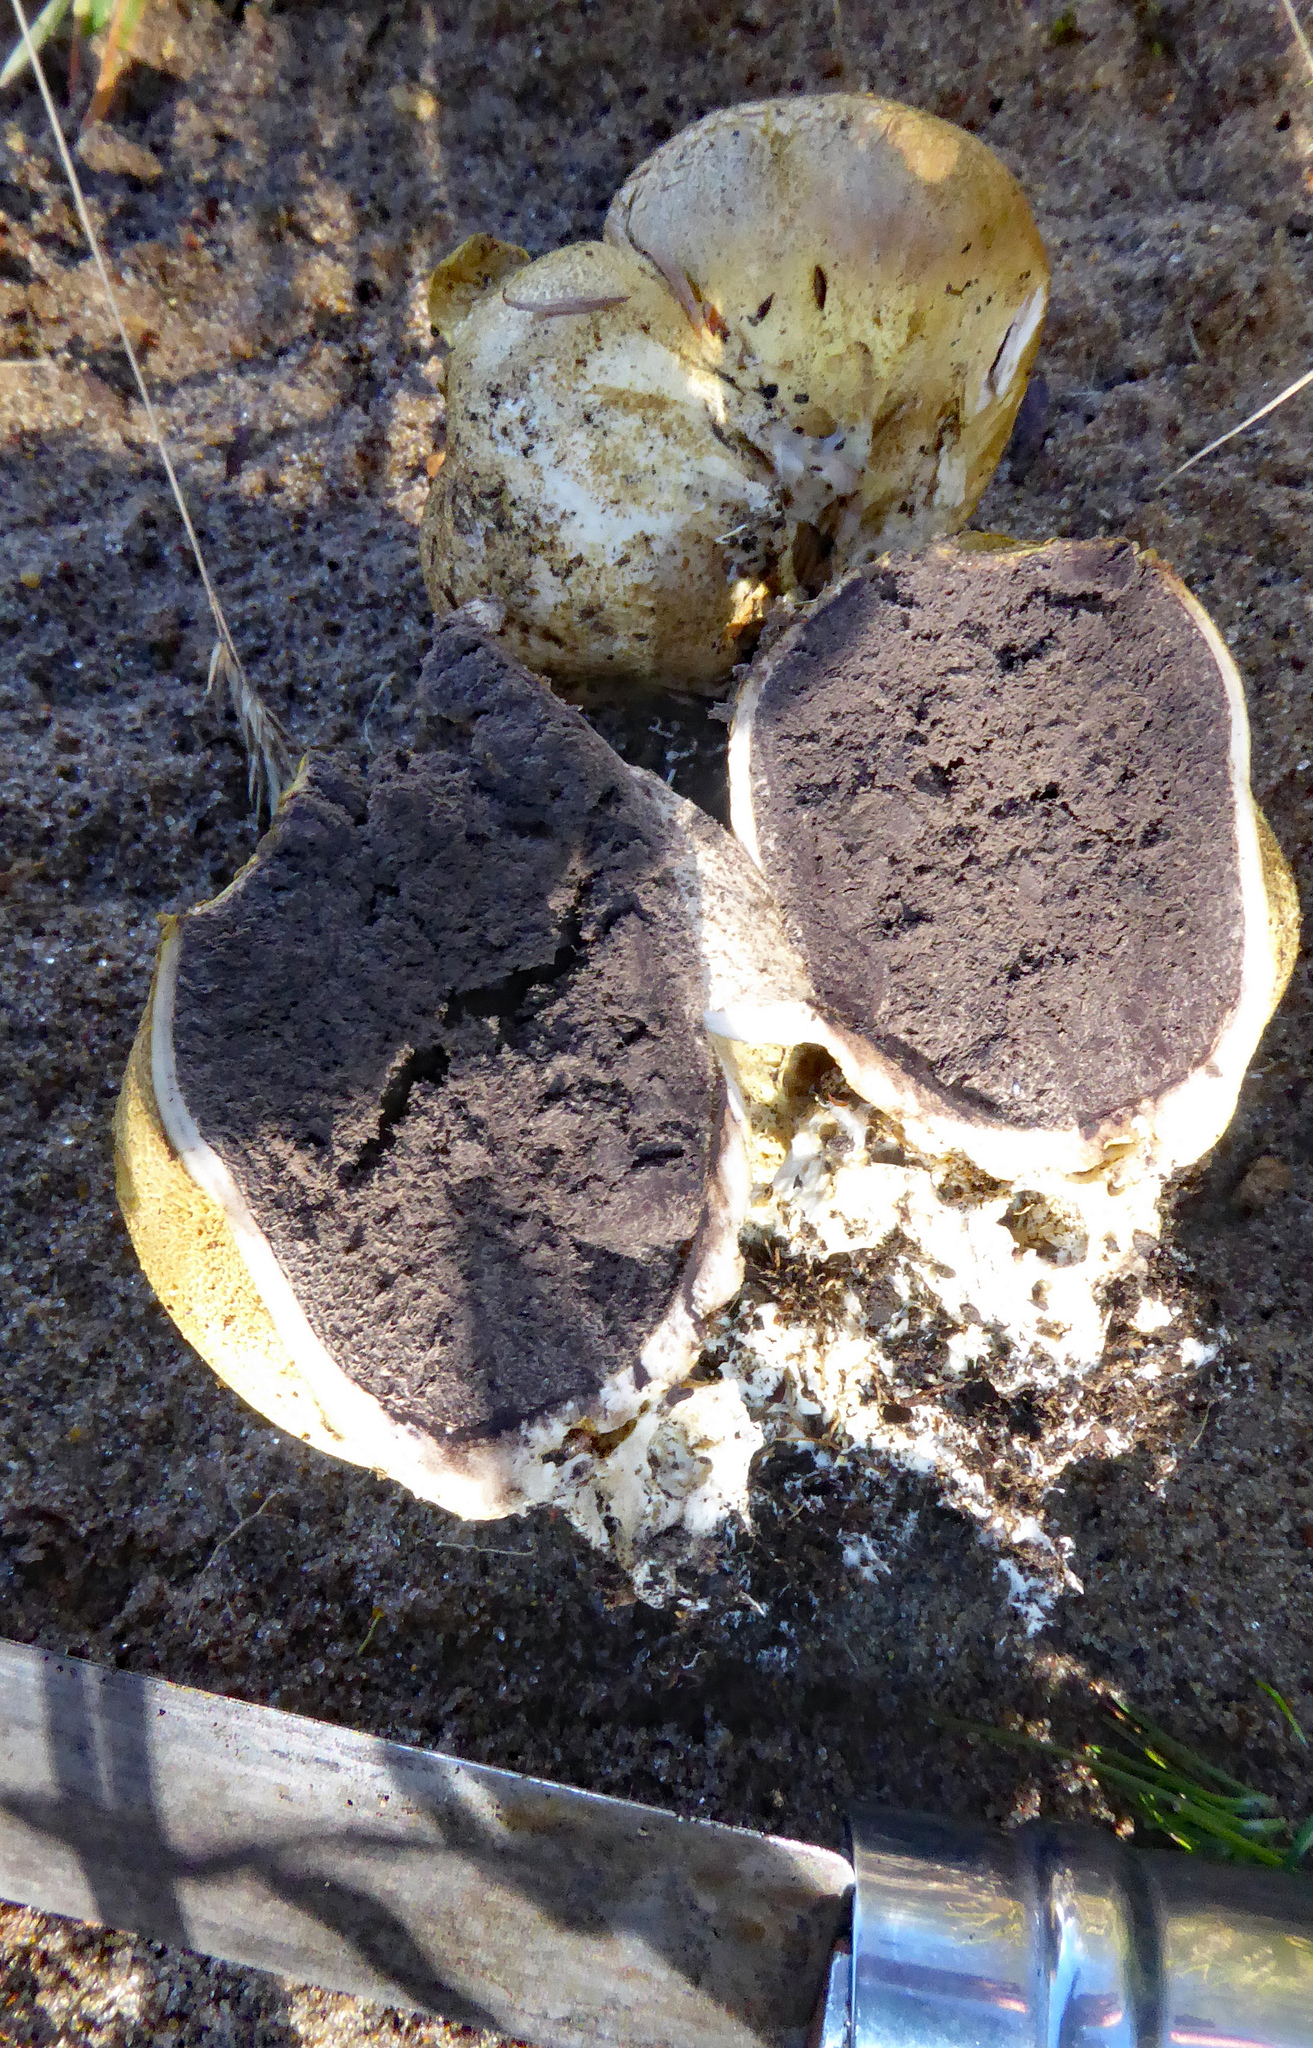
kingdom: Fungi
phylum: Basidiomycota
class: Agaricomycetes
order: Boletales
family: Sclerodermataceae
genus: Scleroderma
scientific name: Scleroderma
